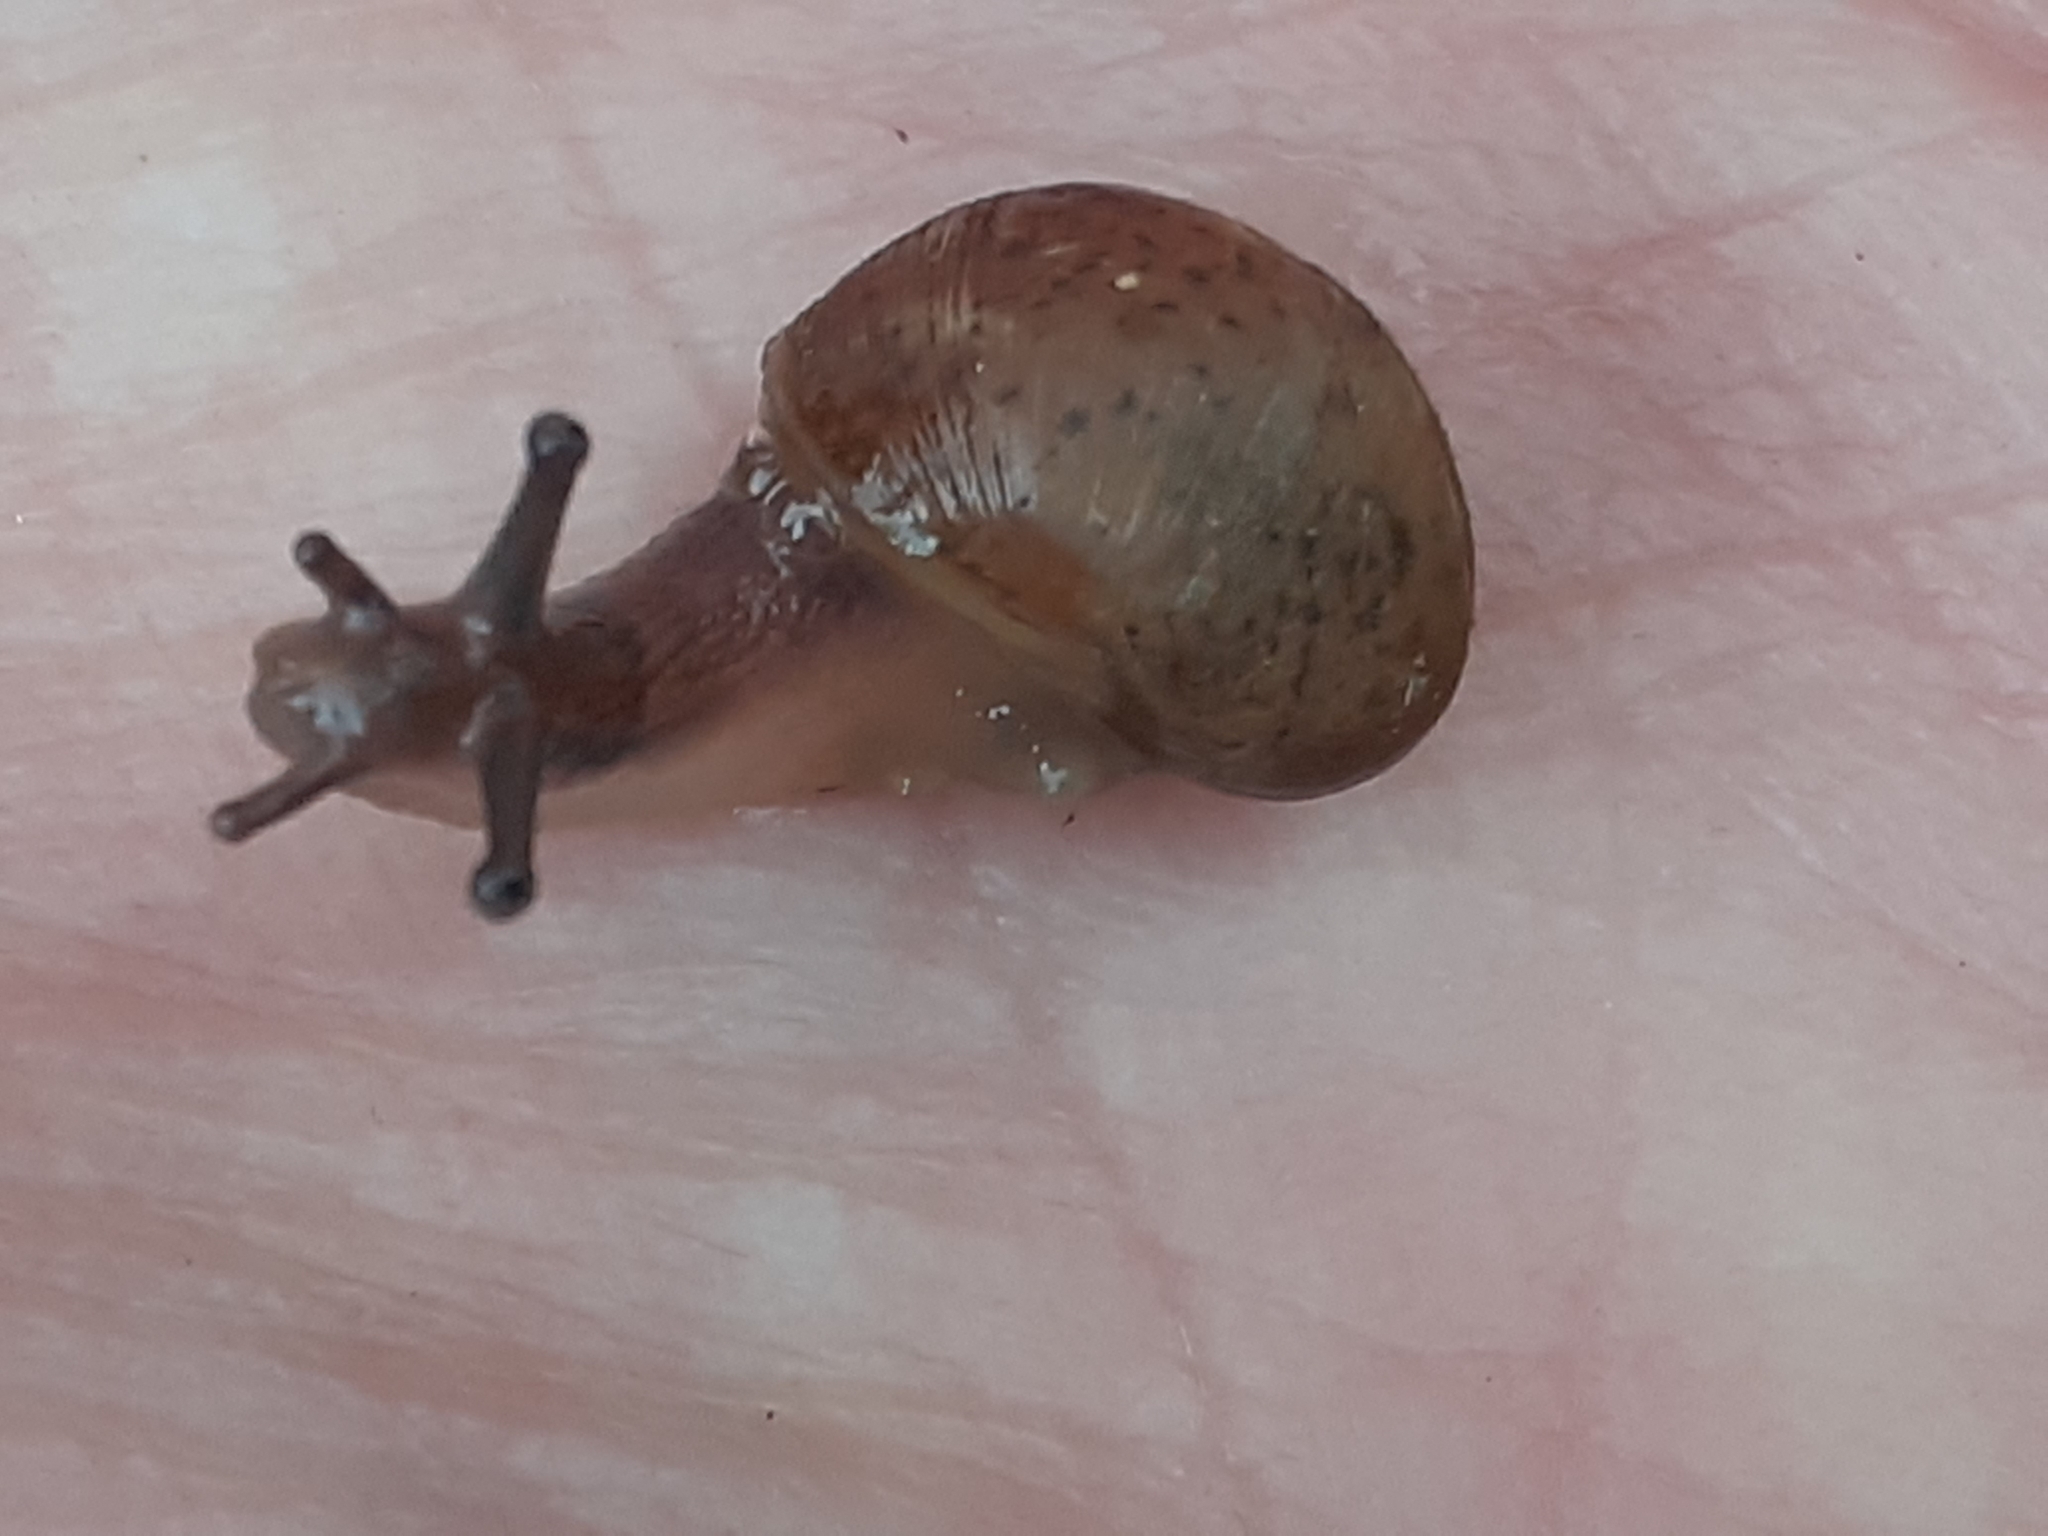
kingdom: Animalia
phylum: Mollusca
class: Gastropoda
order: Stylommatophora
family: Helicidae
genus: Cornu
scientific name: Cornu aspersum
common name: Brown garden snail
